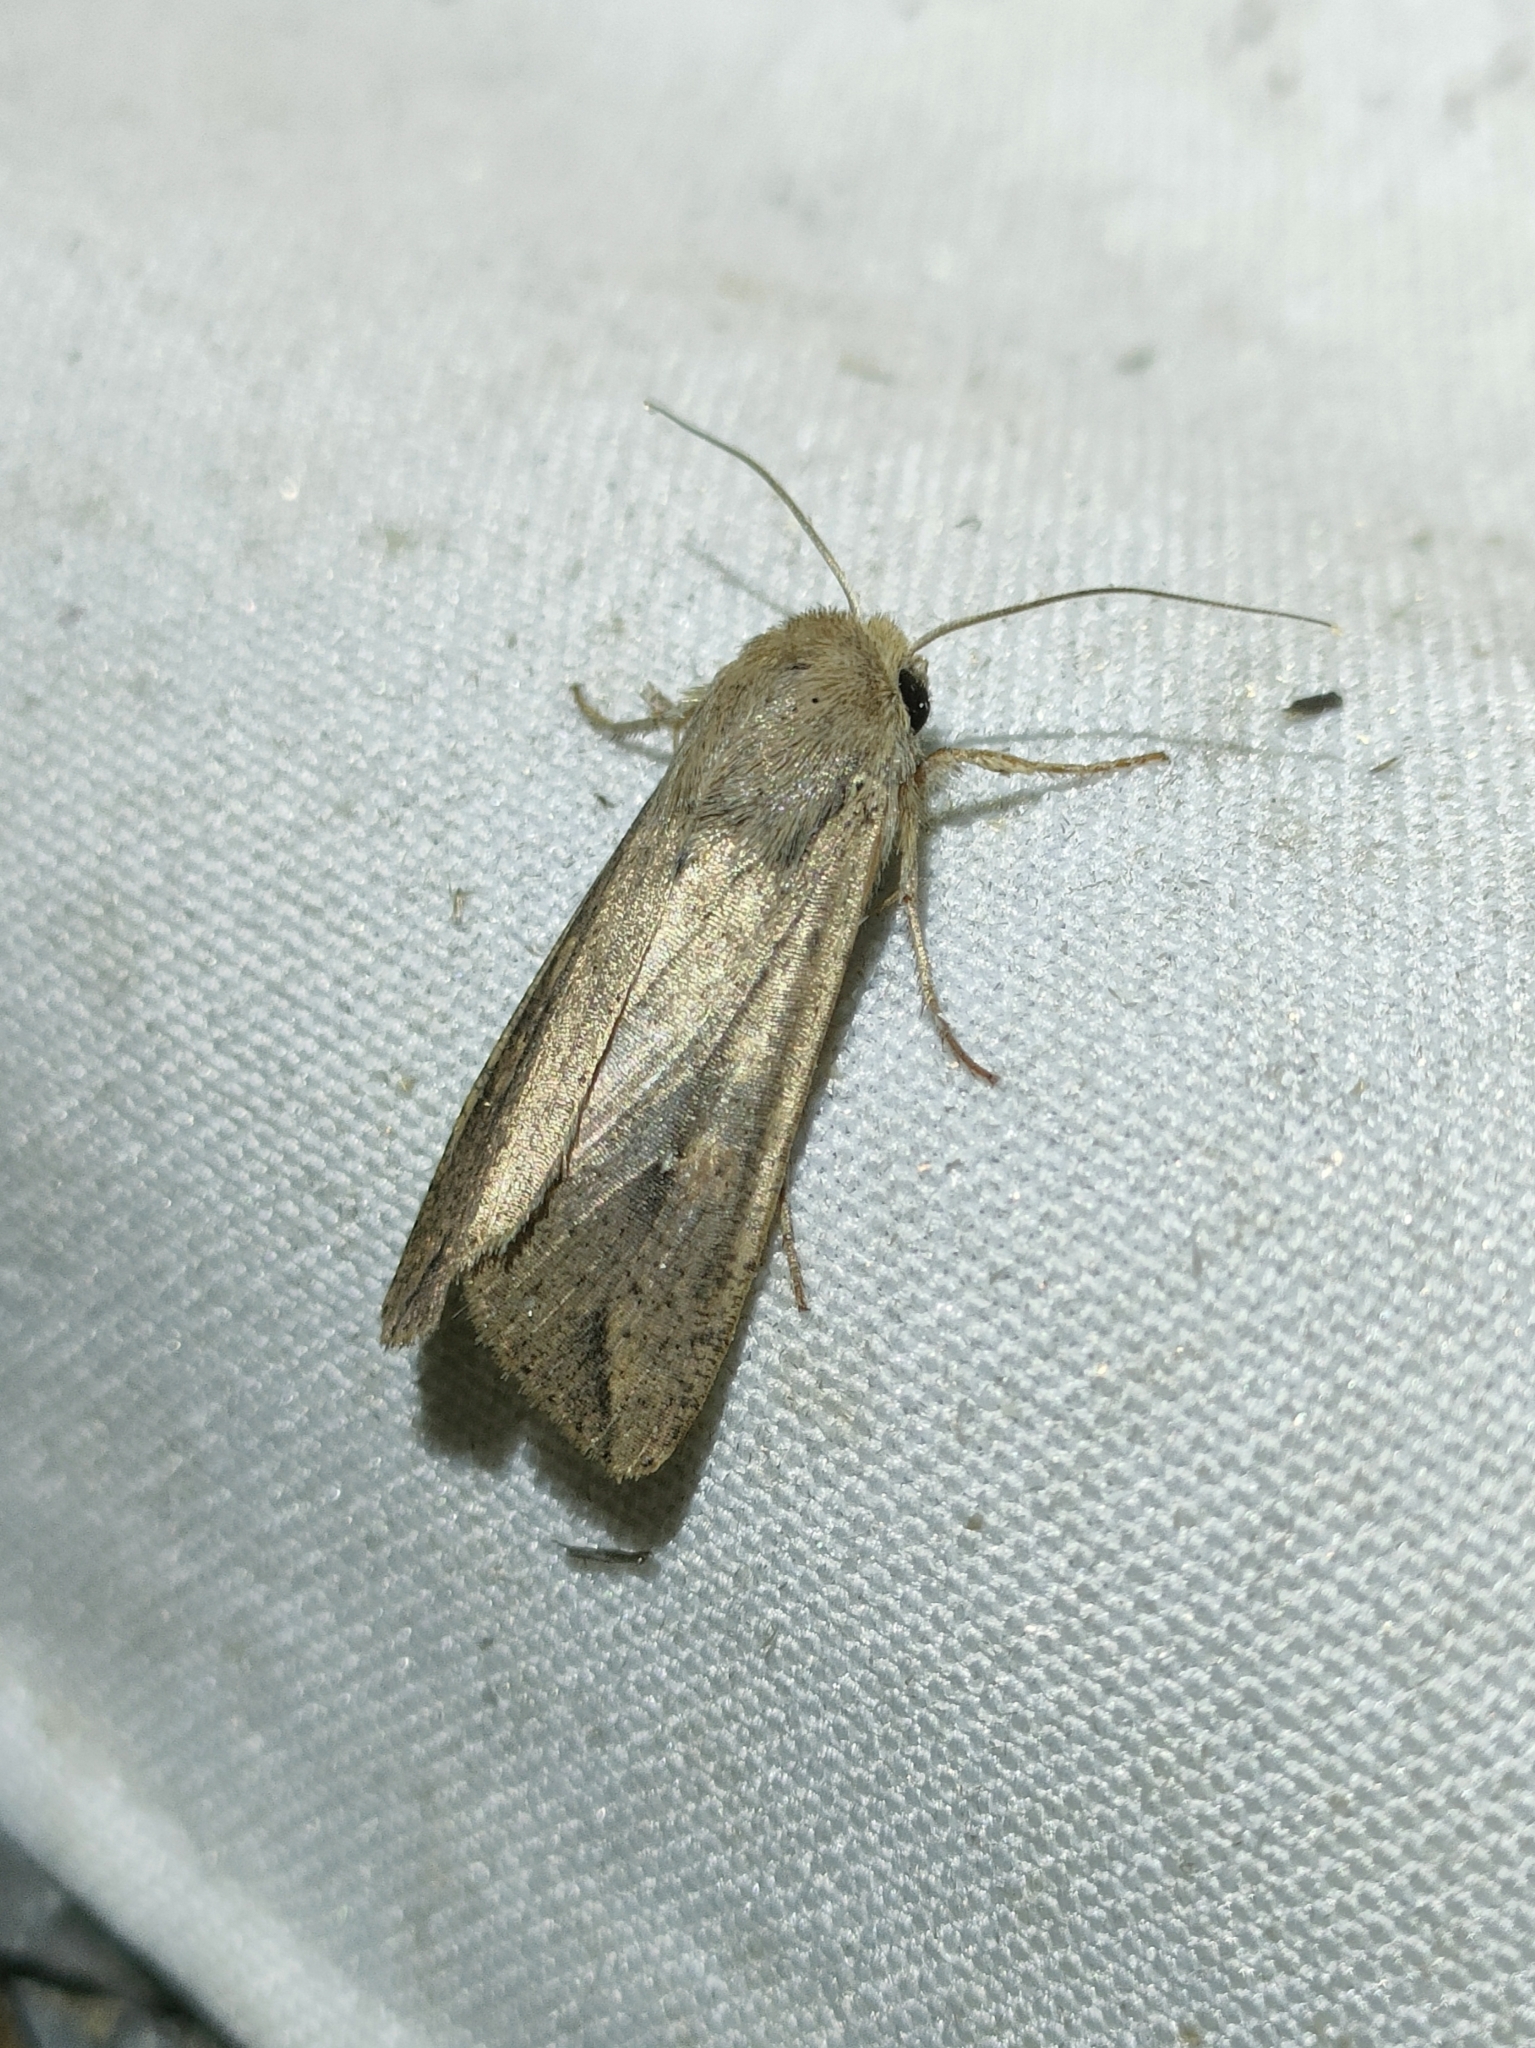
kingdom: Animalia
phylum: Arthropoda
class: Insecta
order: Lepidoptera
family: Noctuidae
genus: Mythimna
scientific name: Mythimna unipuncta
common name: White-speck
